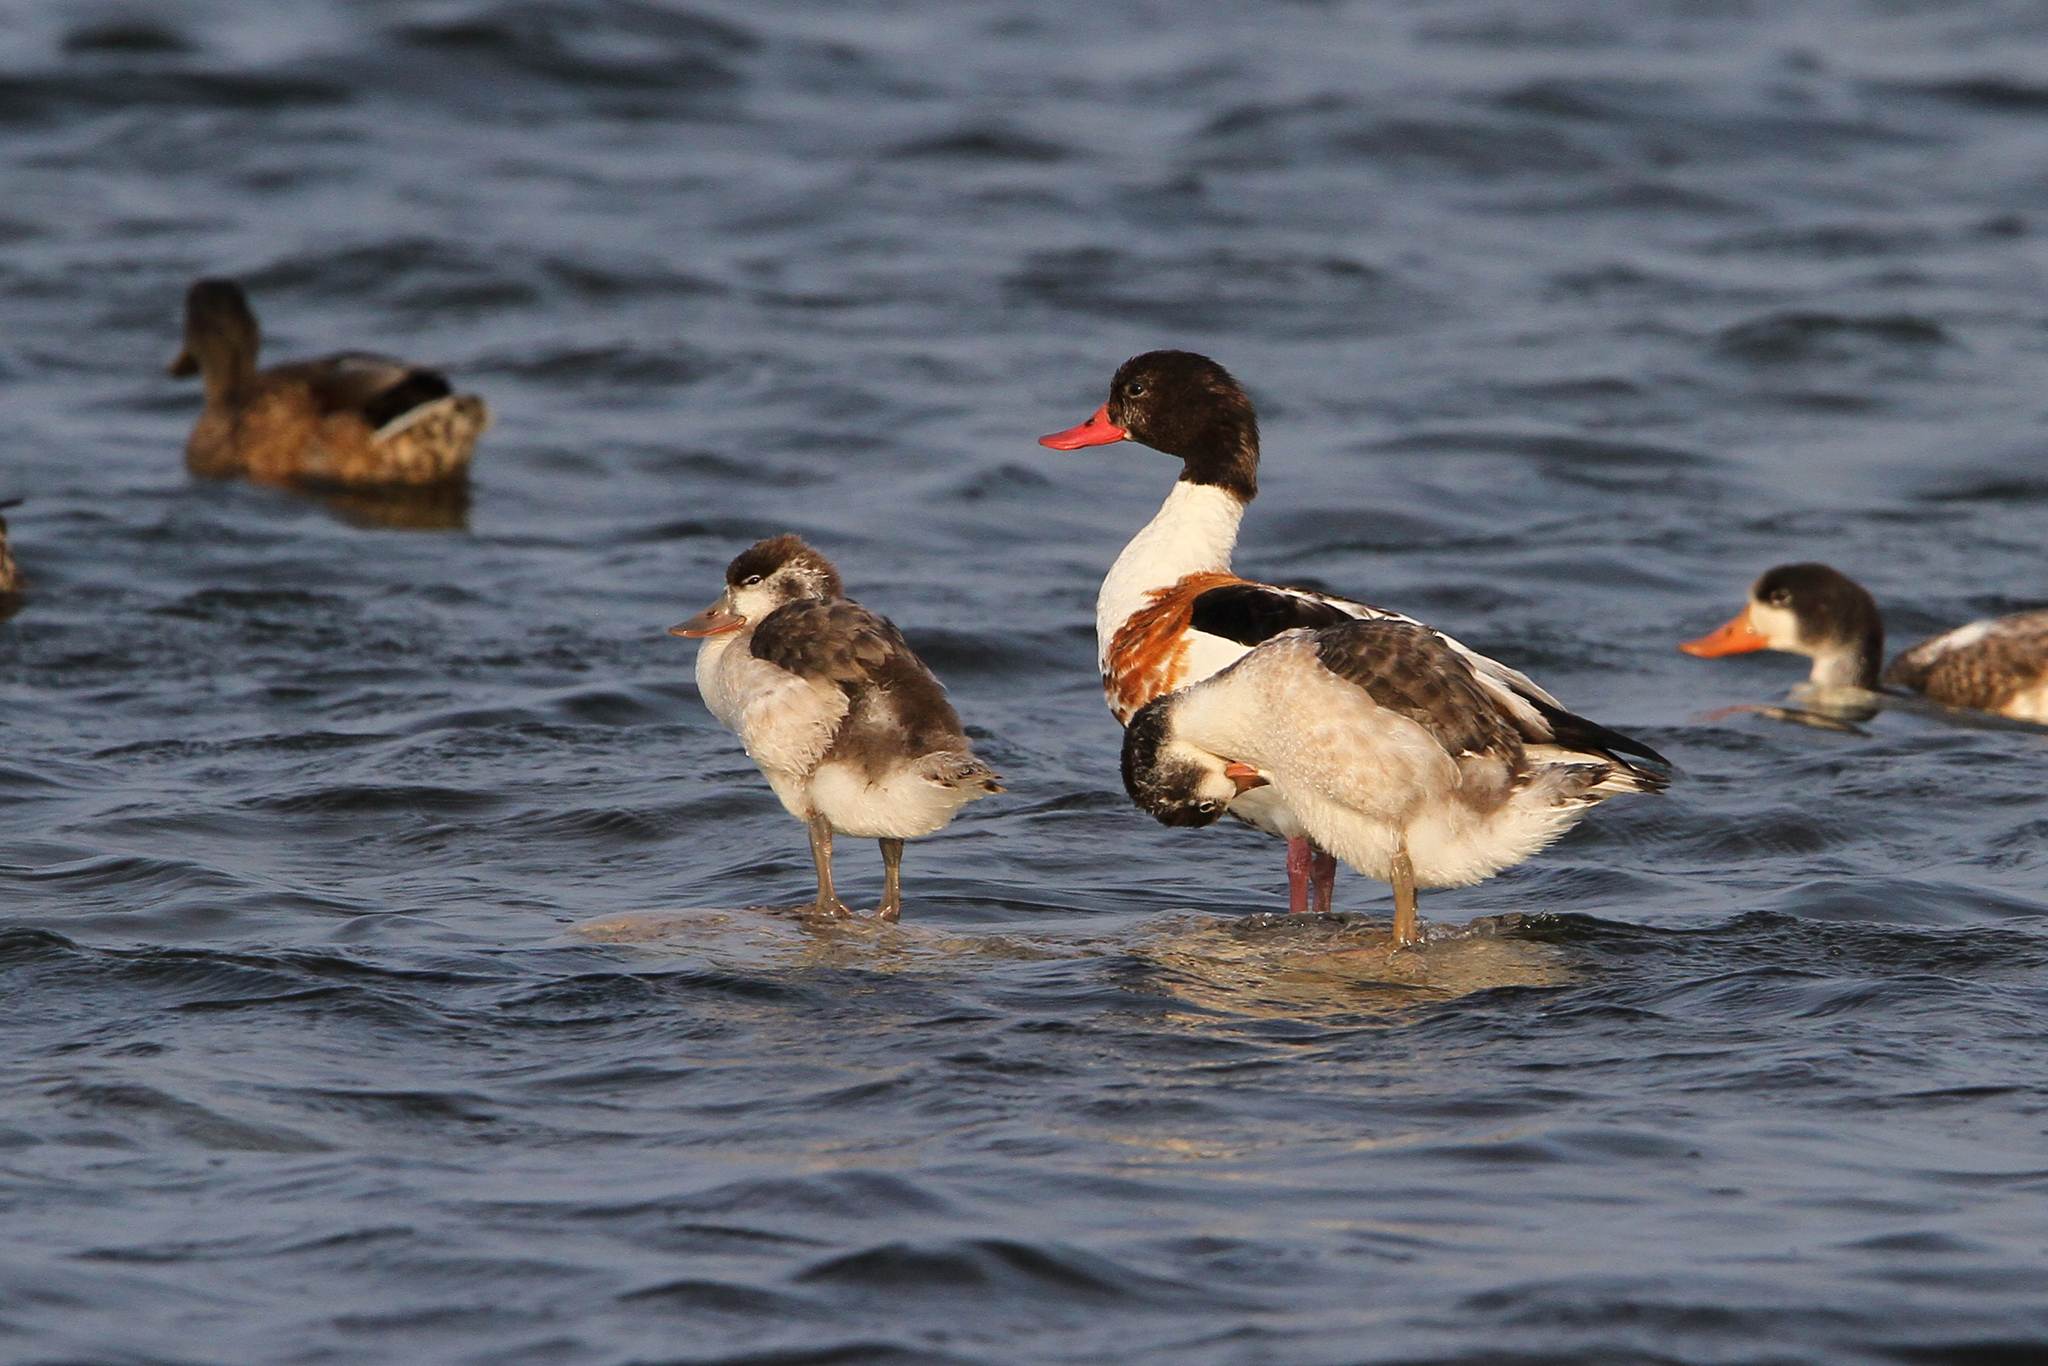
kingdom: Animalia
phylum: Chordata
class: Aves
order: Anseriformes
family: Anatidae
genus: Tadorna
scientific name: Tadorna tadorna
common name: Common shelduck
